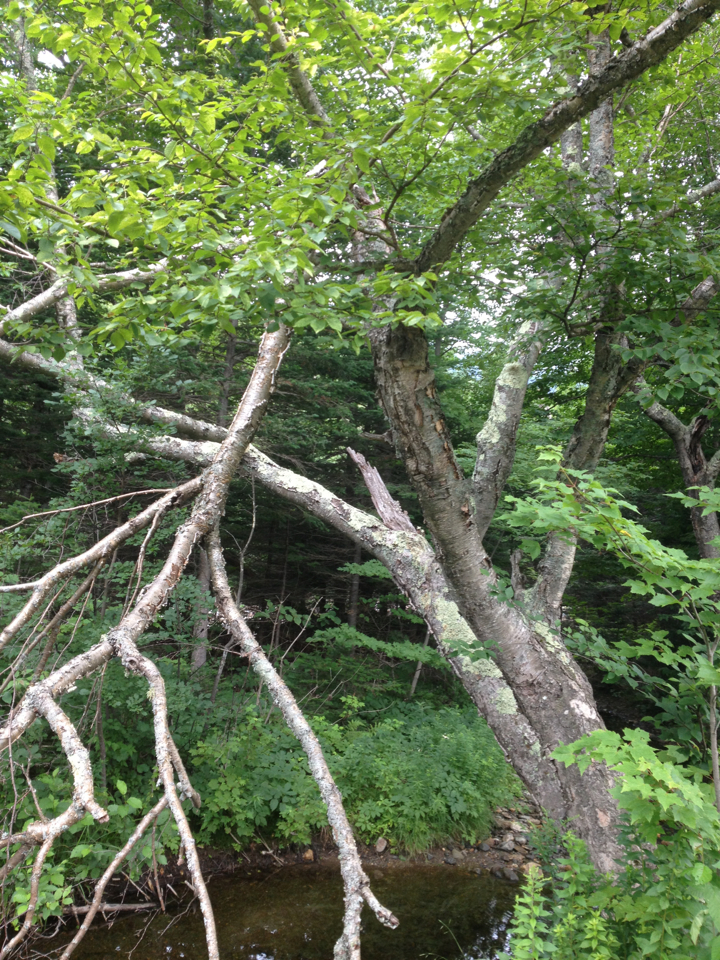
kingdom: Plantae
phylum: Tracheophyta
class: Magnoliopsida
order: Fagales
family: Betulaceae
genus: Betula
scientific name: Betula alleghaniensis
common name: Yellow birch
